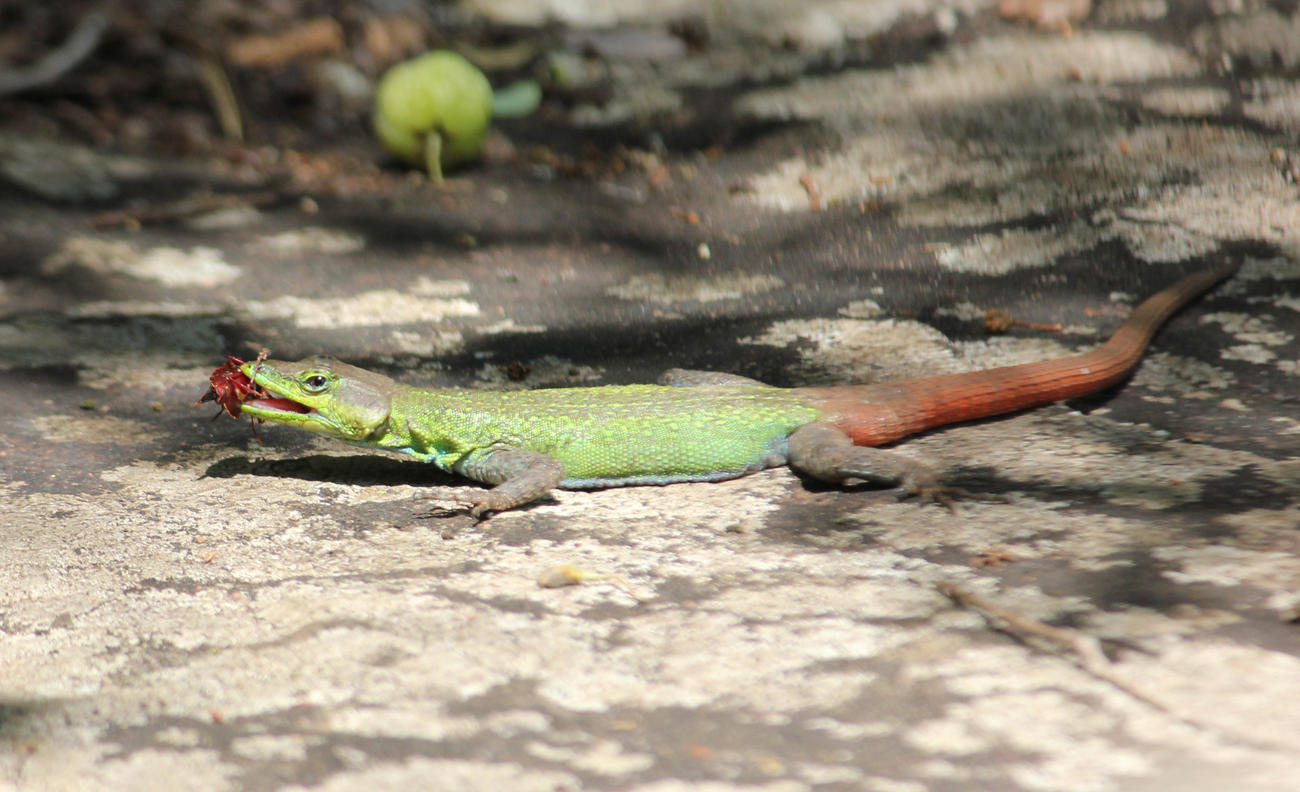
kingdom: Animalia
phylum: Chordata
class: Squamata
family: Cordylidae
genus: Platysaurus
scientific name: Platysaurus intermedius
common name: Common flat lizard
